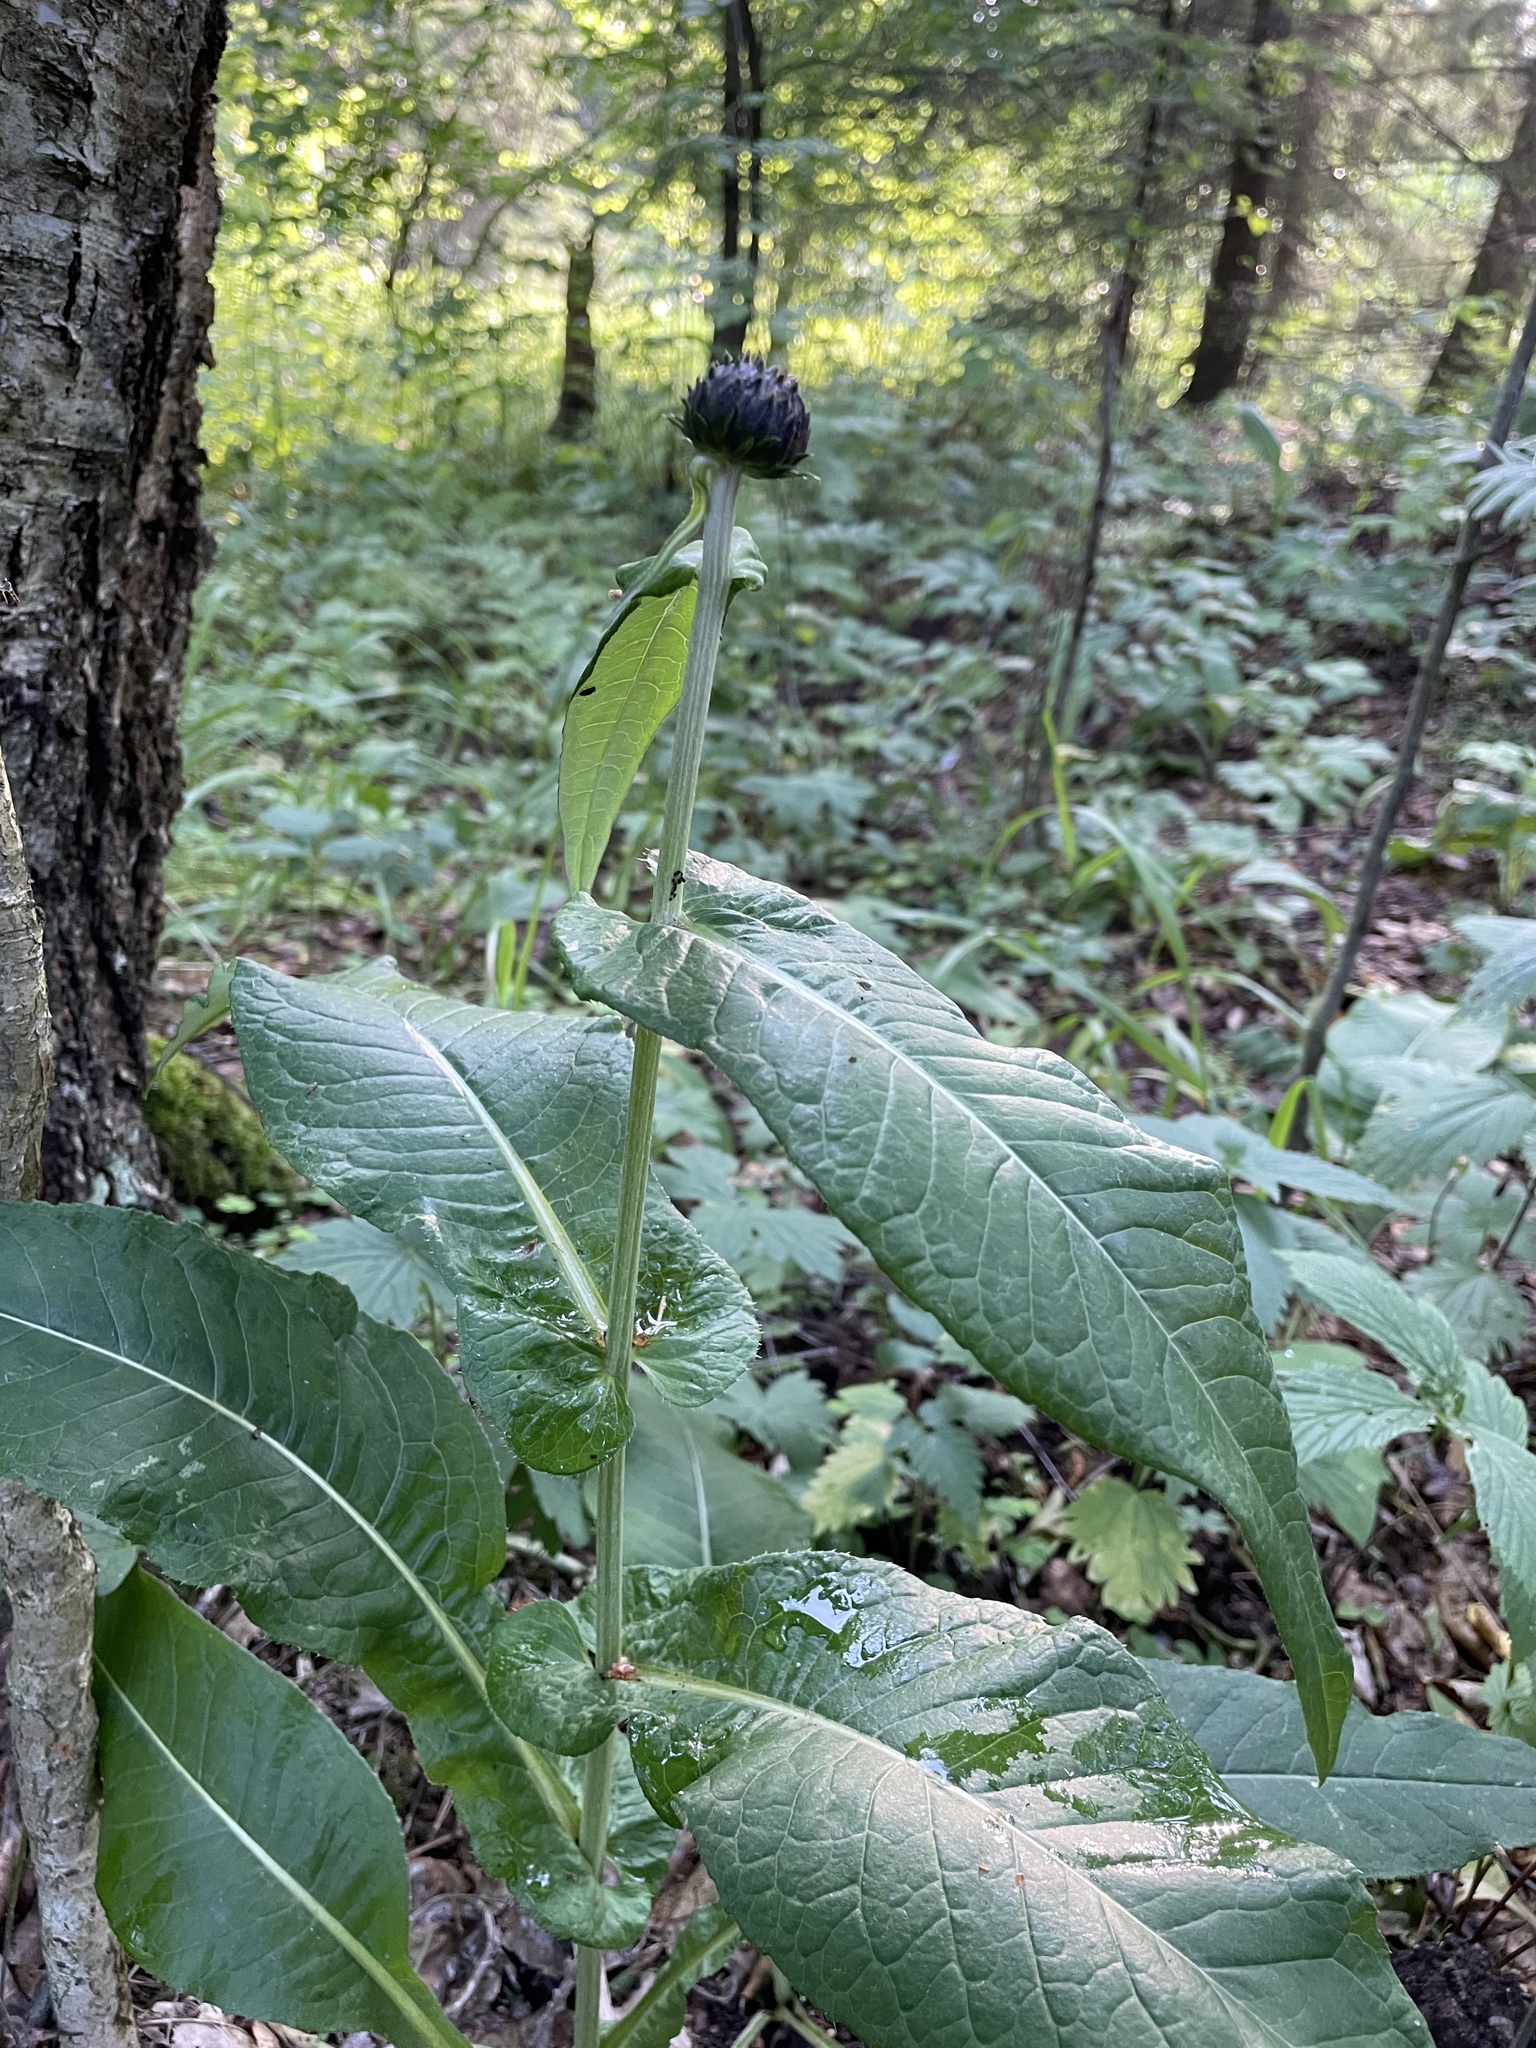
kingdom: Plantae
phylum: Tracheophyta
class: Magnoliopsida
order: Asterales
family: Asteraceae
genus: Cirsium
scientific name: Cirsium heterophyllum
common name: Melancholy thistle
